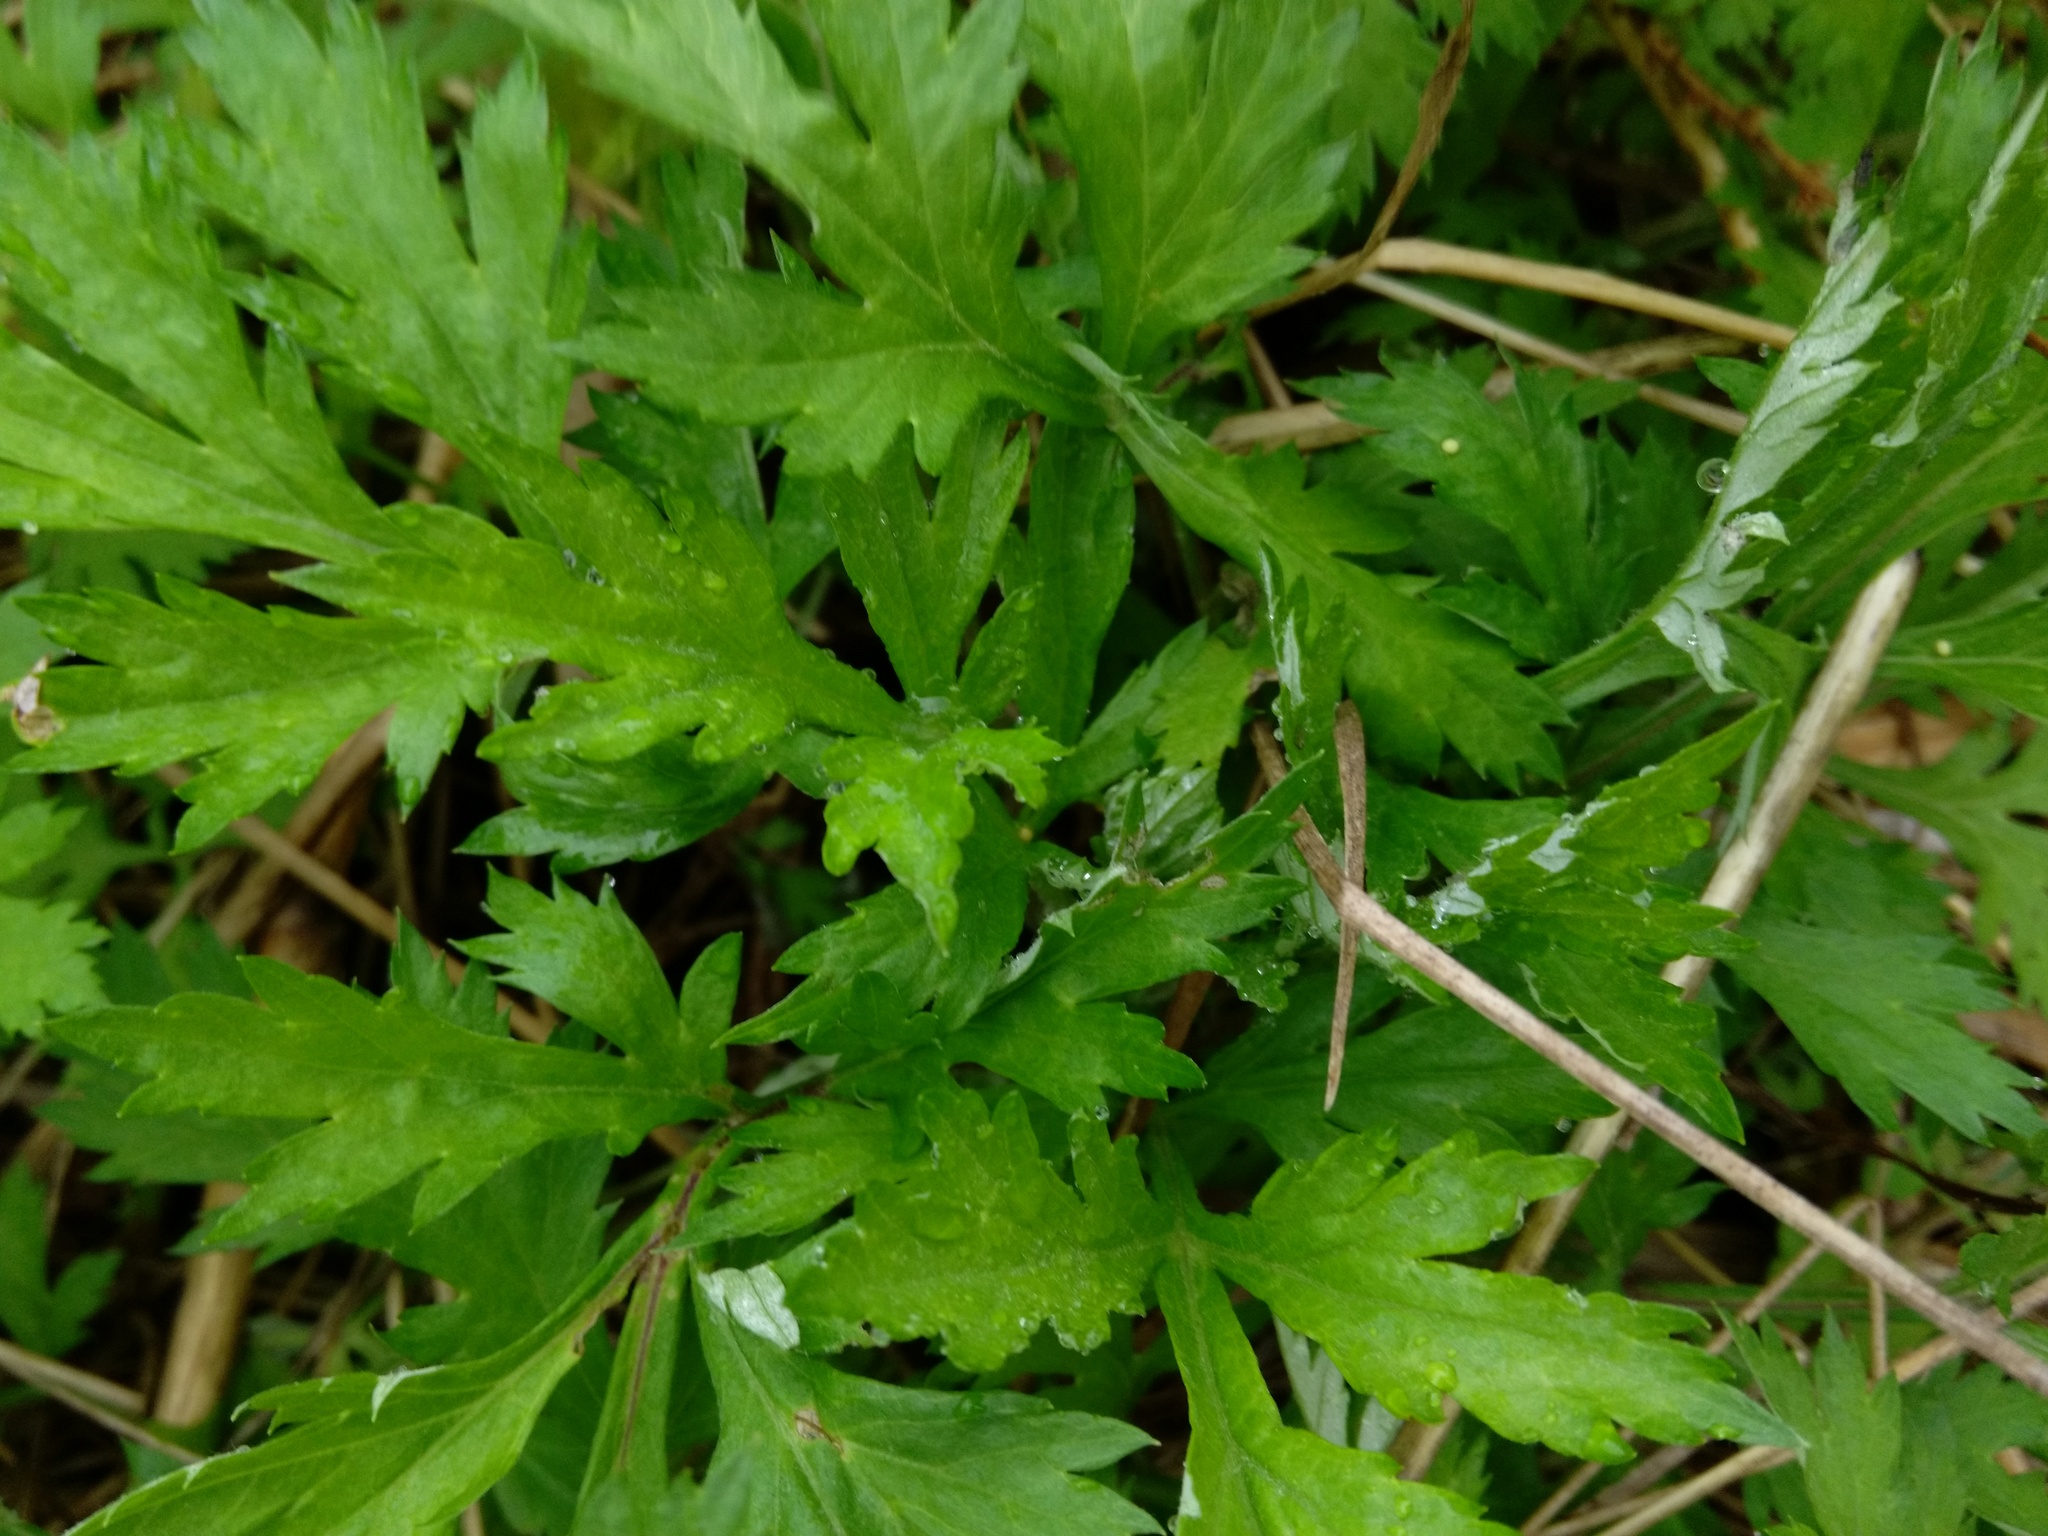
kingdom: Plantae
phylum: Tracheophyta
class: Magnoliopsida
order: Asterales
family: Asteraceae
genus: Artemisia
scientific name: Artemisia vulgaris
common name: Mugwort
